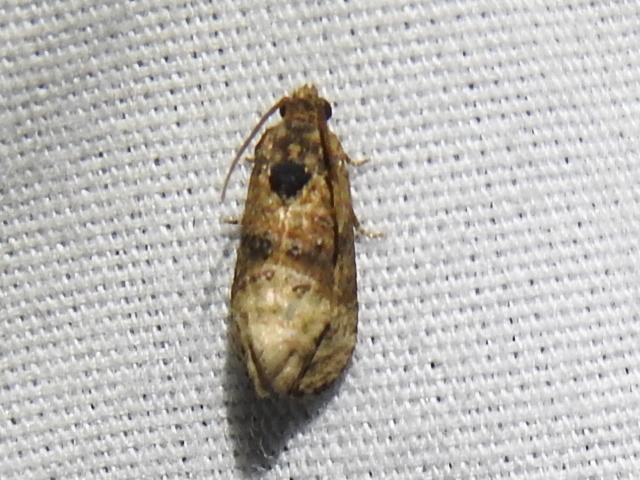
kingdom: Animalia
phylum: Arthropoda
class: Insecta
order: Lepidoptera
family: Tortricidae
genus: Ecdytolopha
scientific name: Ecdytolopha mana
